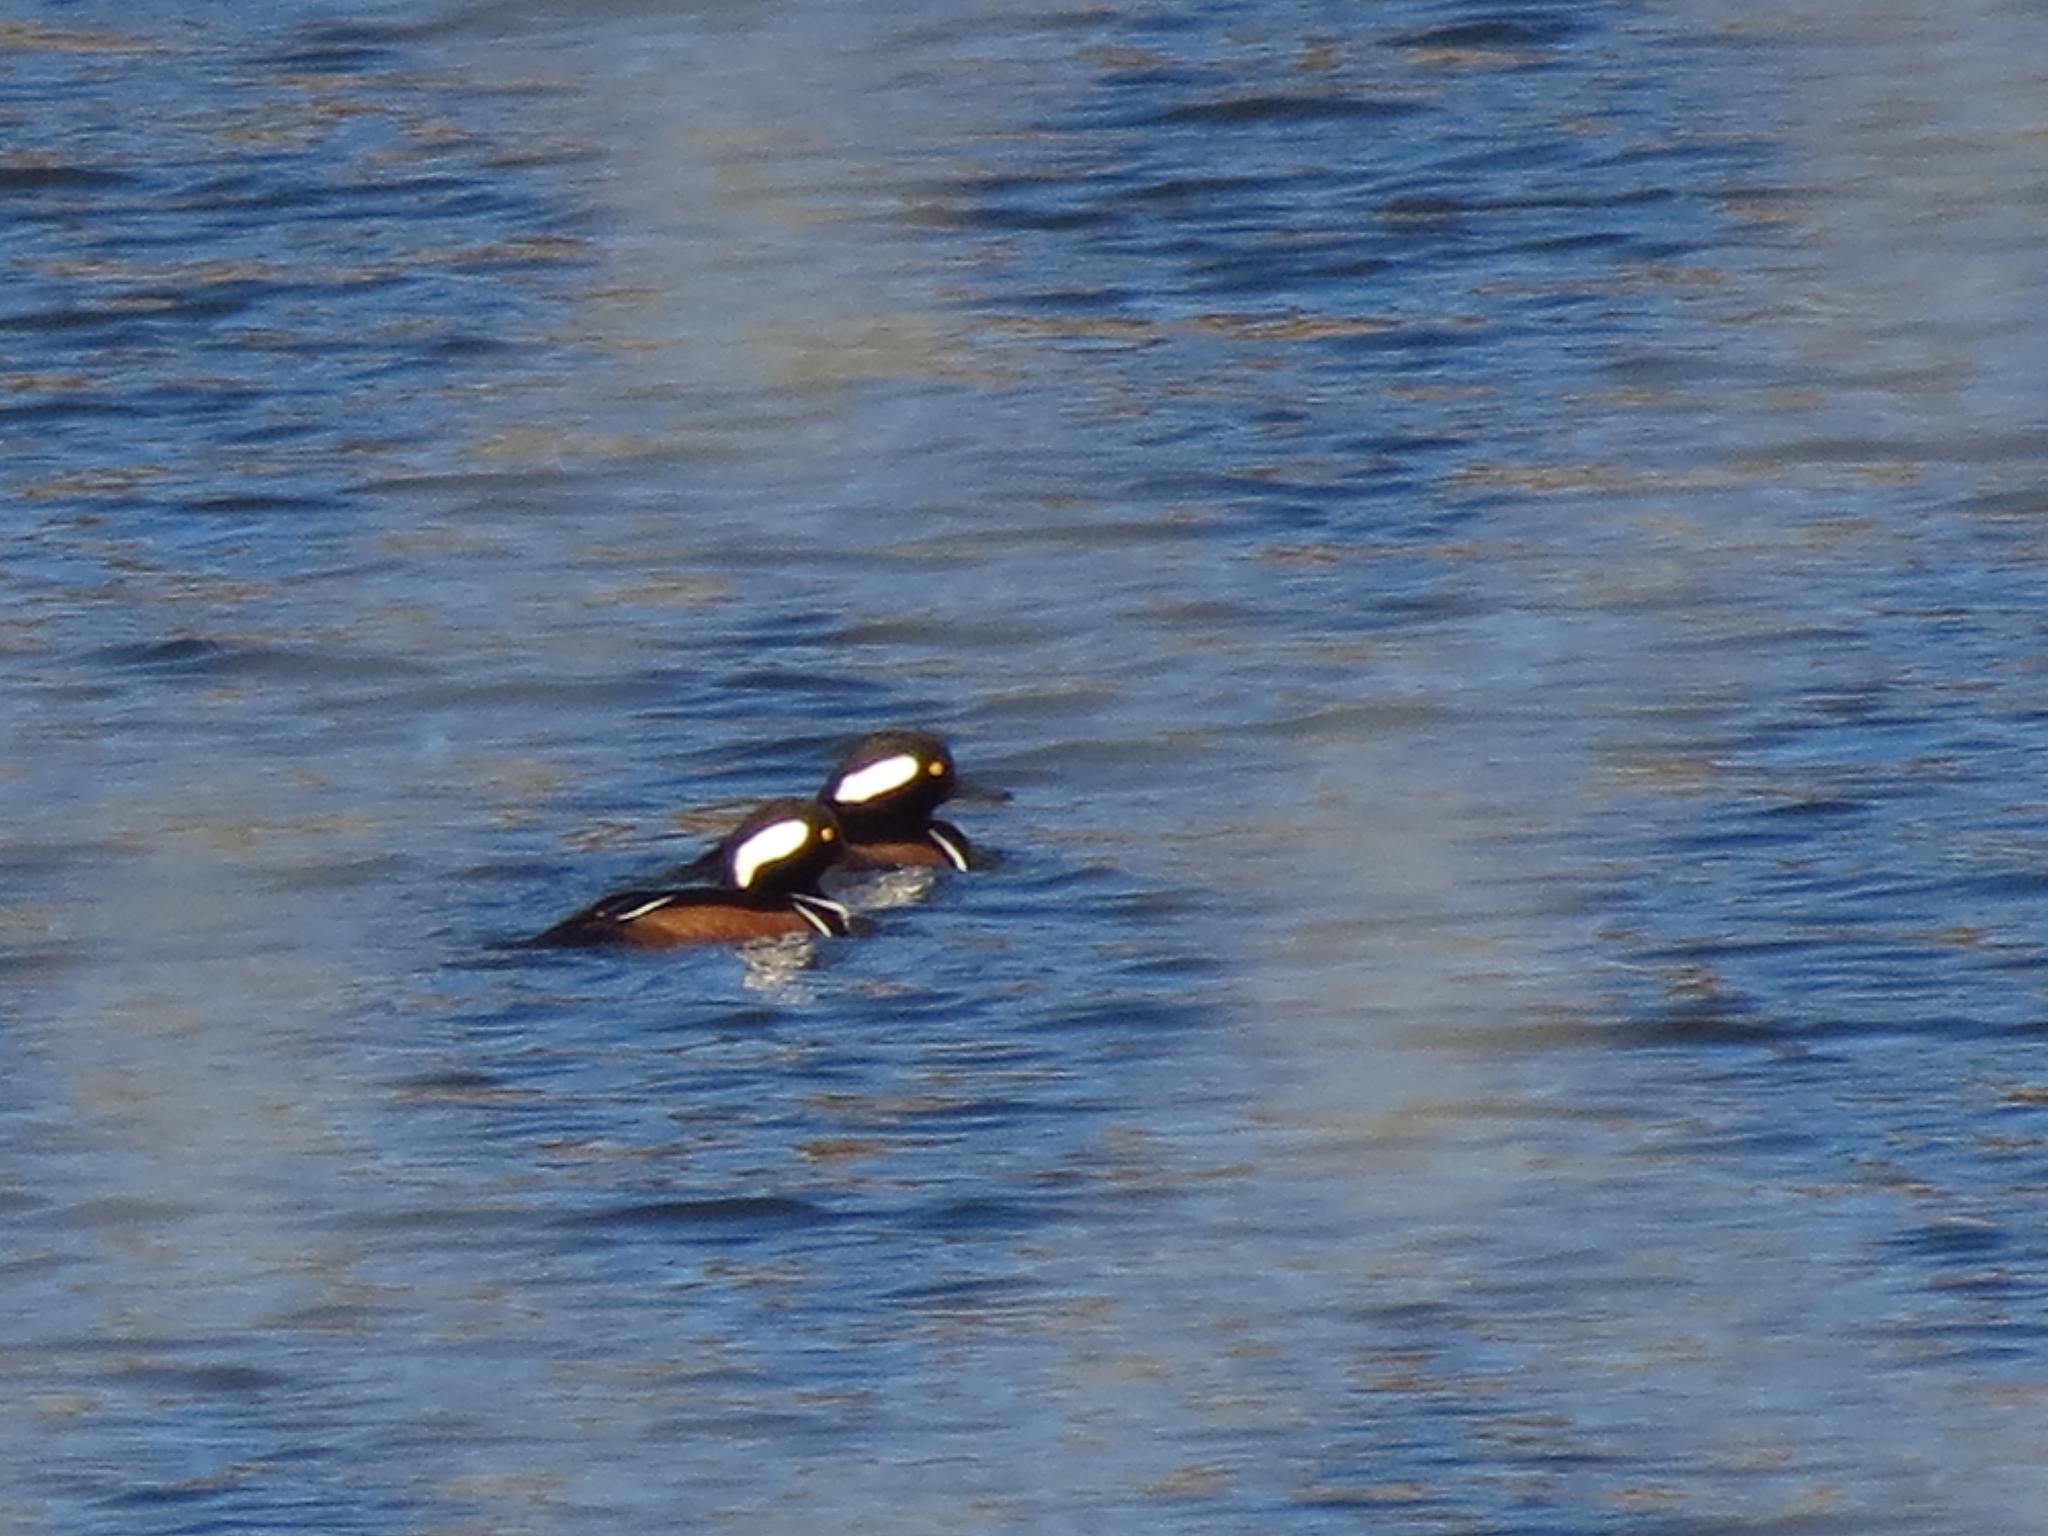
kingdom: Animalia
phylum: Chordata
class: Aves
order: Anseriformes
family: Anatidae
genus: Lophodytes
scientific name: Lophodytes cucullatus
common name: Hooded merganser
